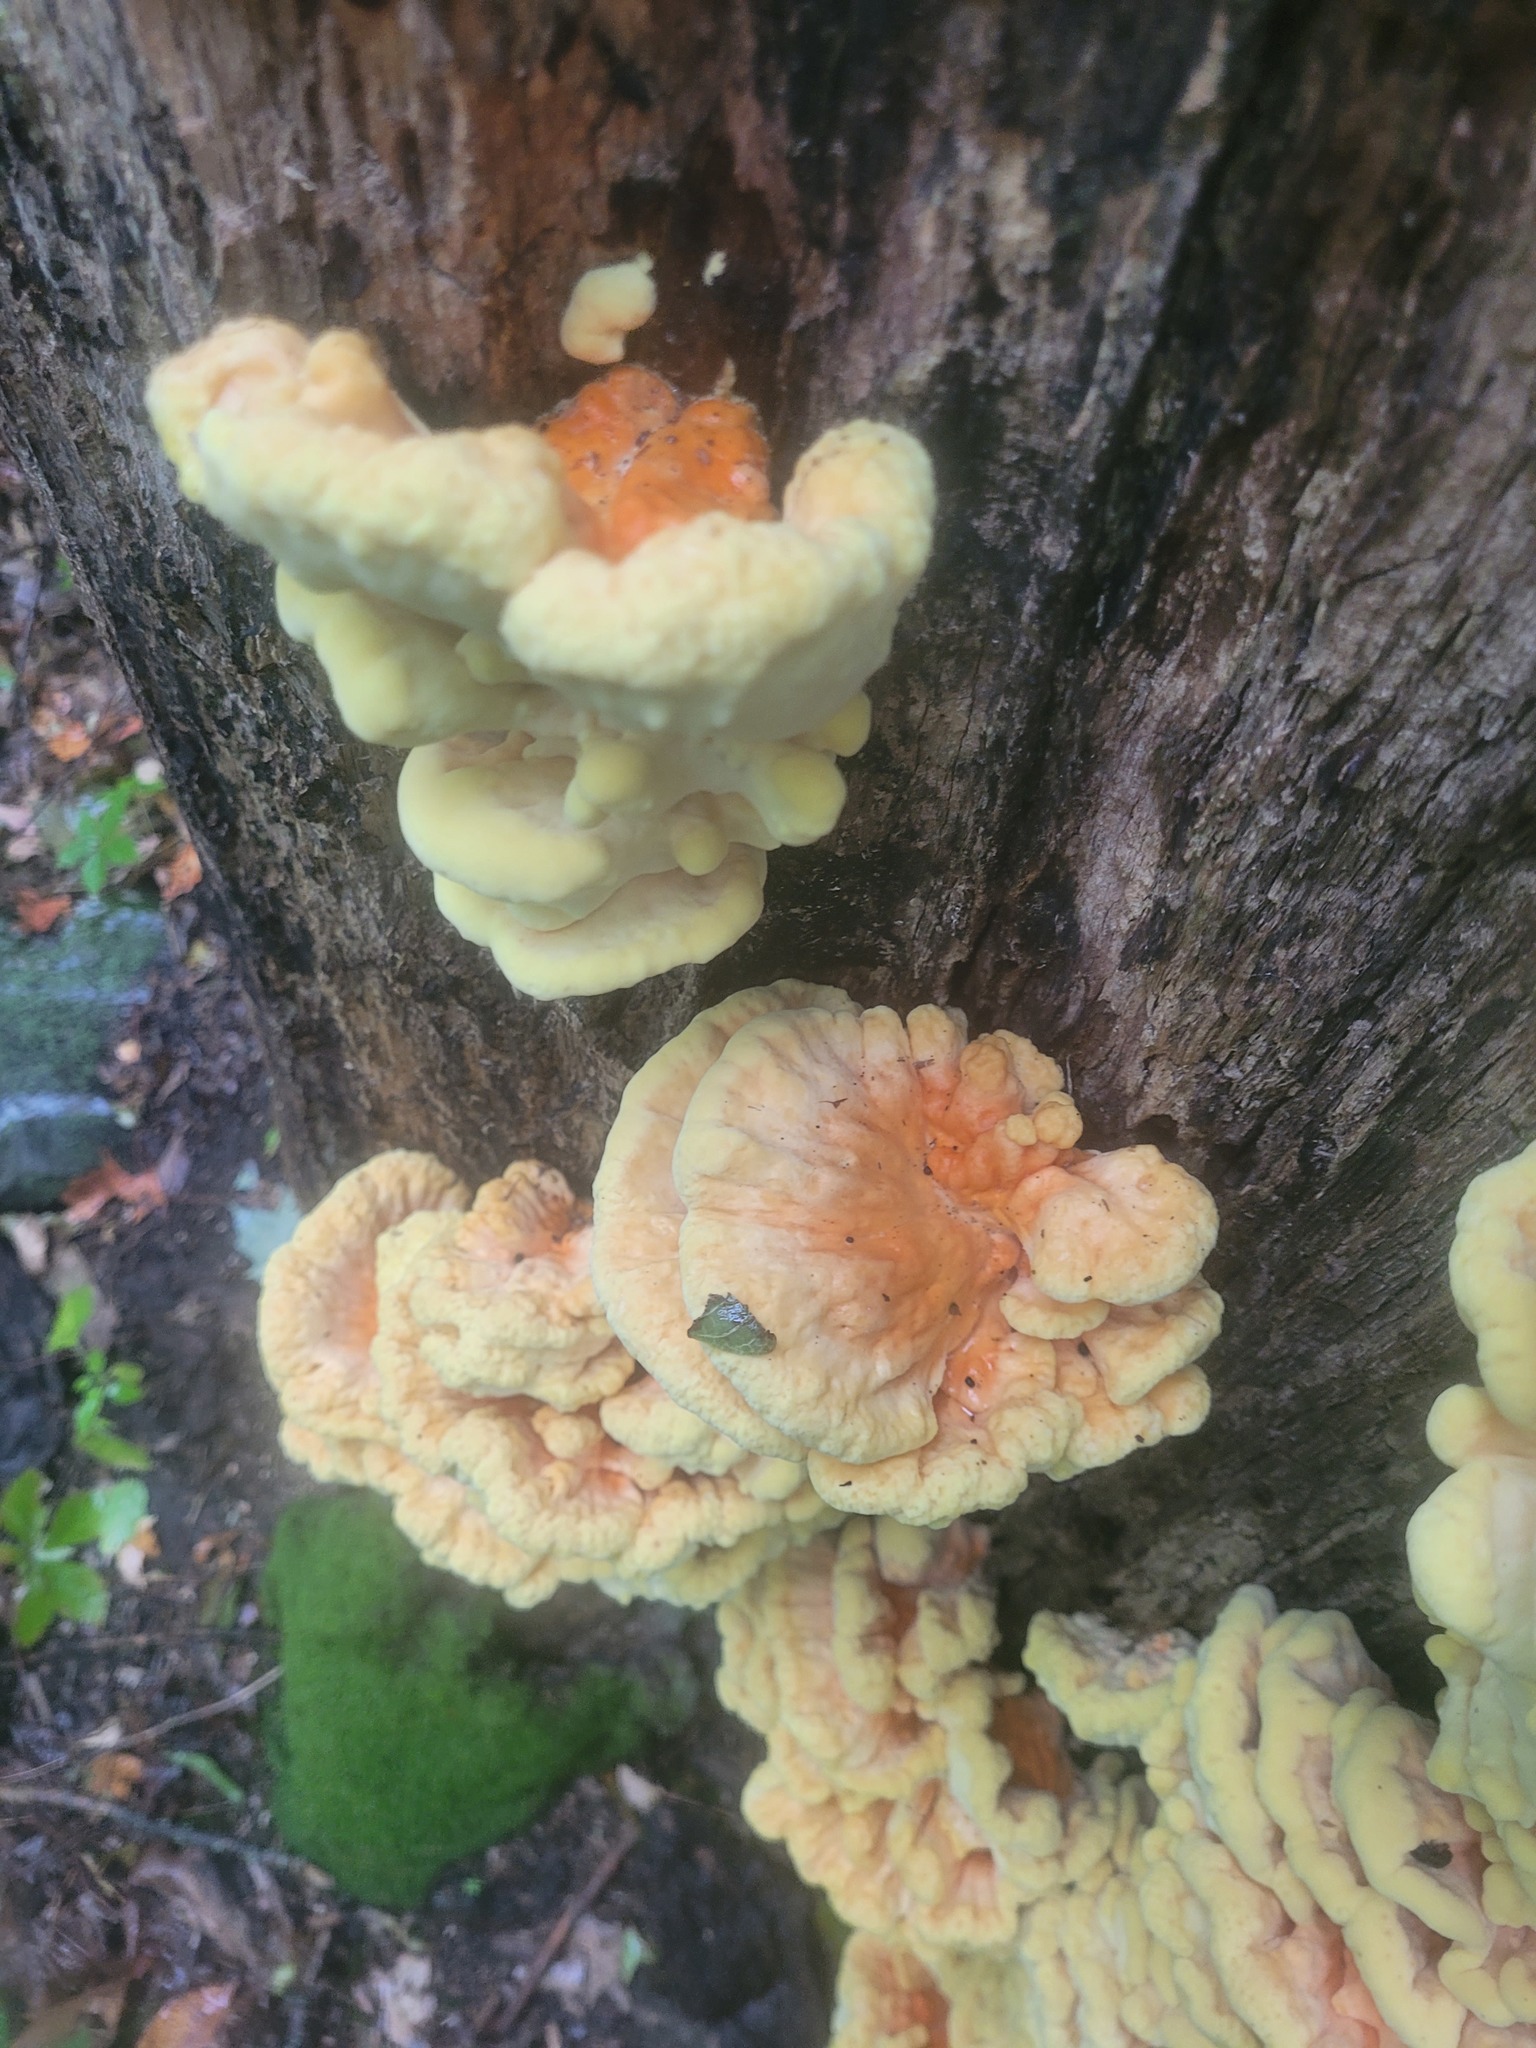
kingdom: Fungi
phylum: Basidiomycota
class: Agaricomycetes
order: Polyporales
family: Laetiporaceae
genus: Laetiporus
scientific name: Laetiporus sulphureus
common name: Chicken of the woods
